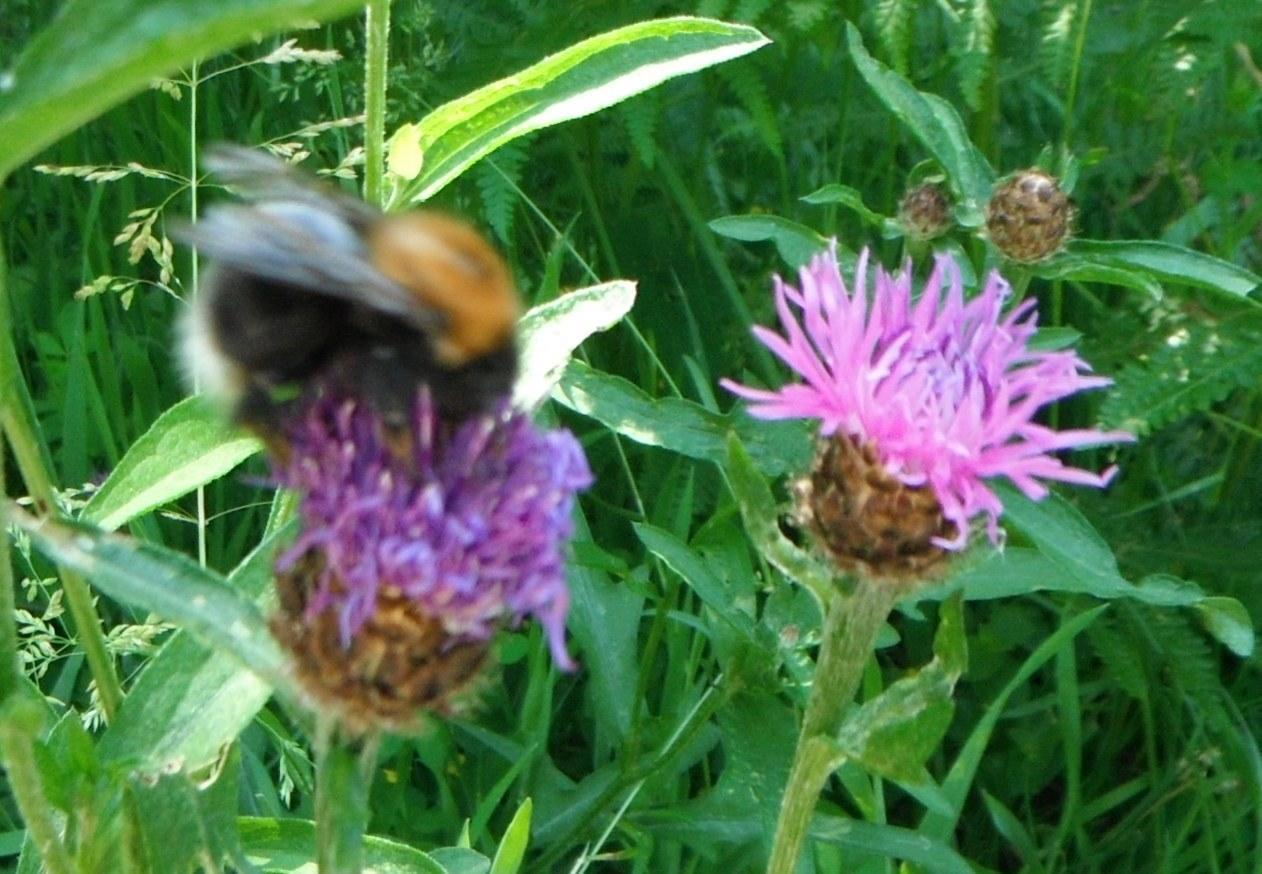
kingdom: Plantae
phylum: Tracheophyta
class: Magnoliopsida
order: Asterales
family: Asteraceae
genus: Centaurea
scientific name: Centaurea jacea
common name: Brown knapweed
